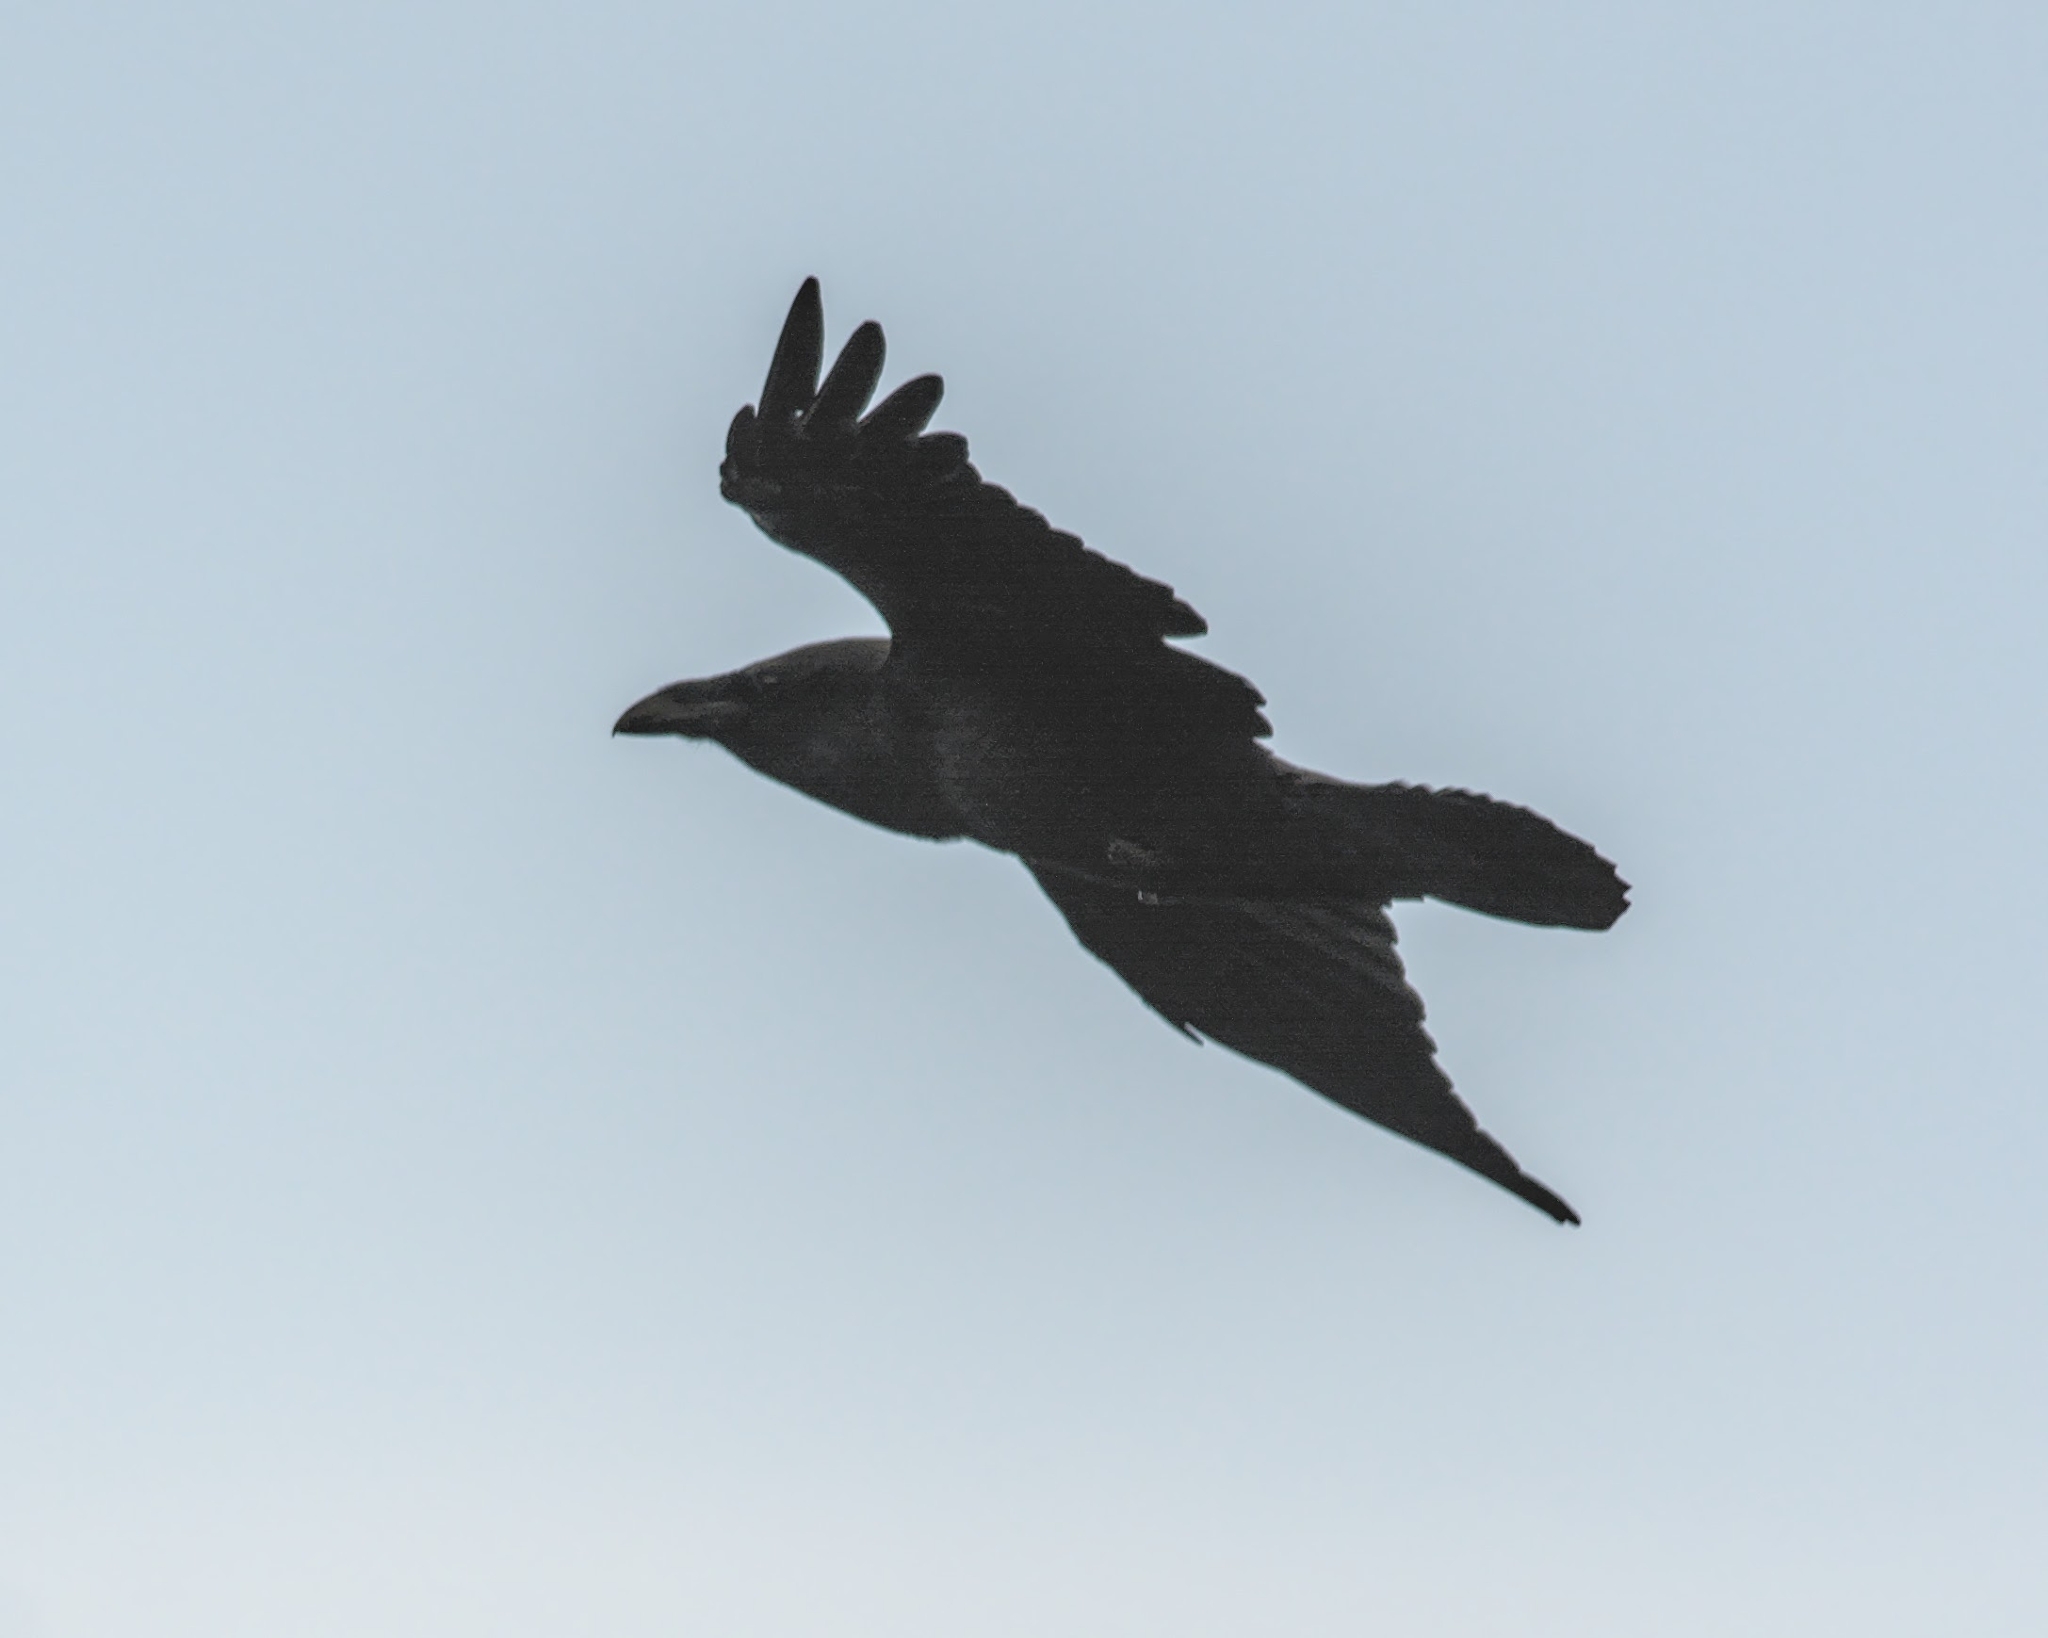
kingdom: Animalia
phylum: Chordata
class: Aves
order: Passeriformes
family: Corvidae
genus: Corvus
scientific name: Corvus corax
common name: Common raven
